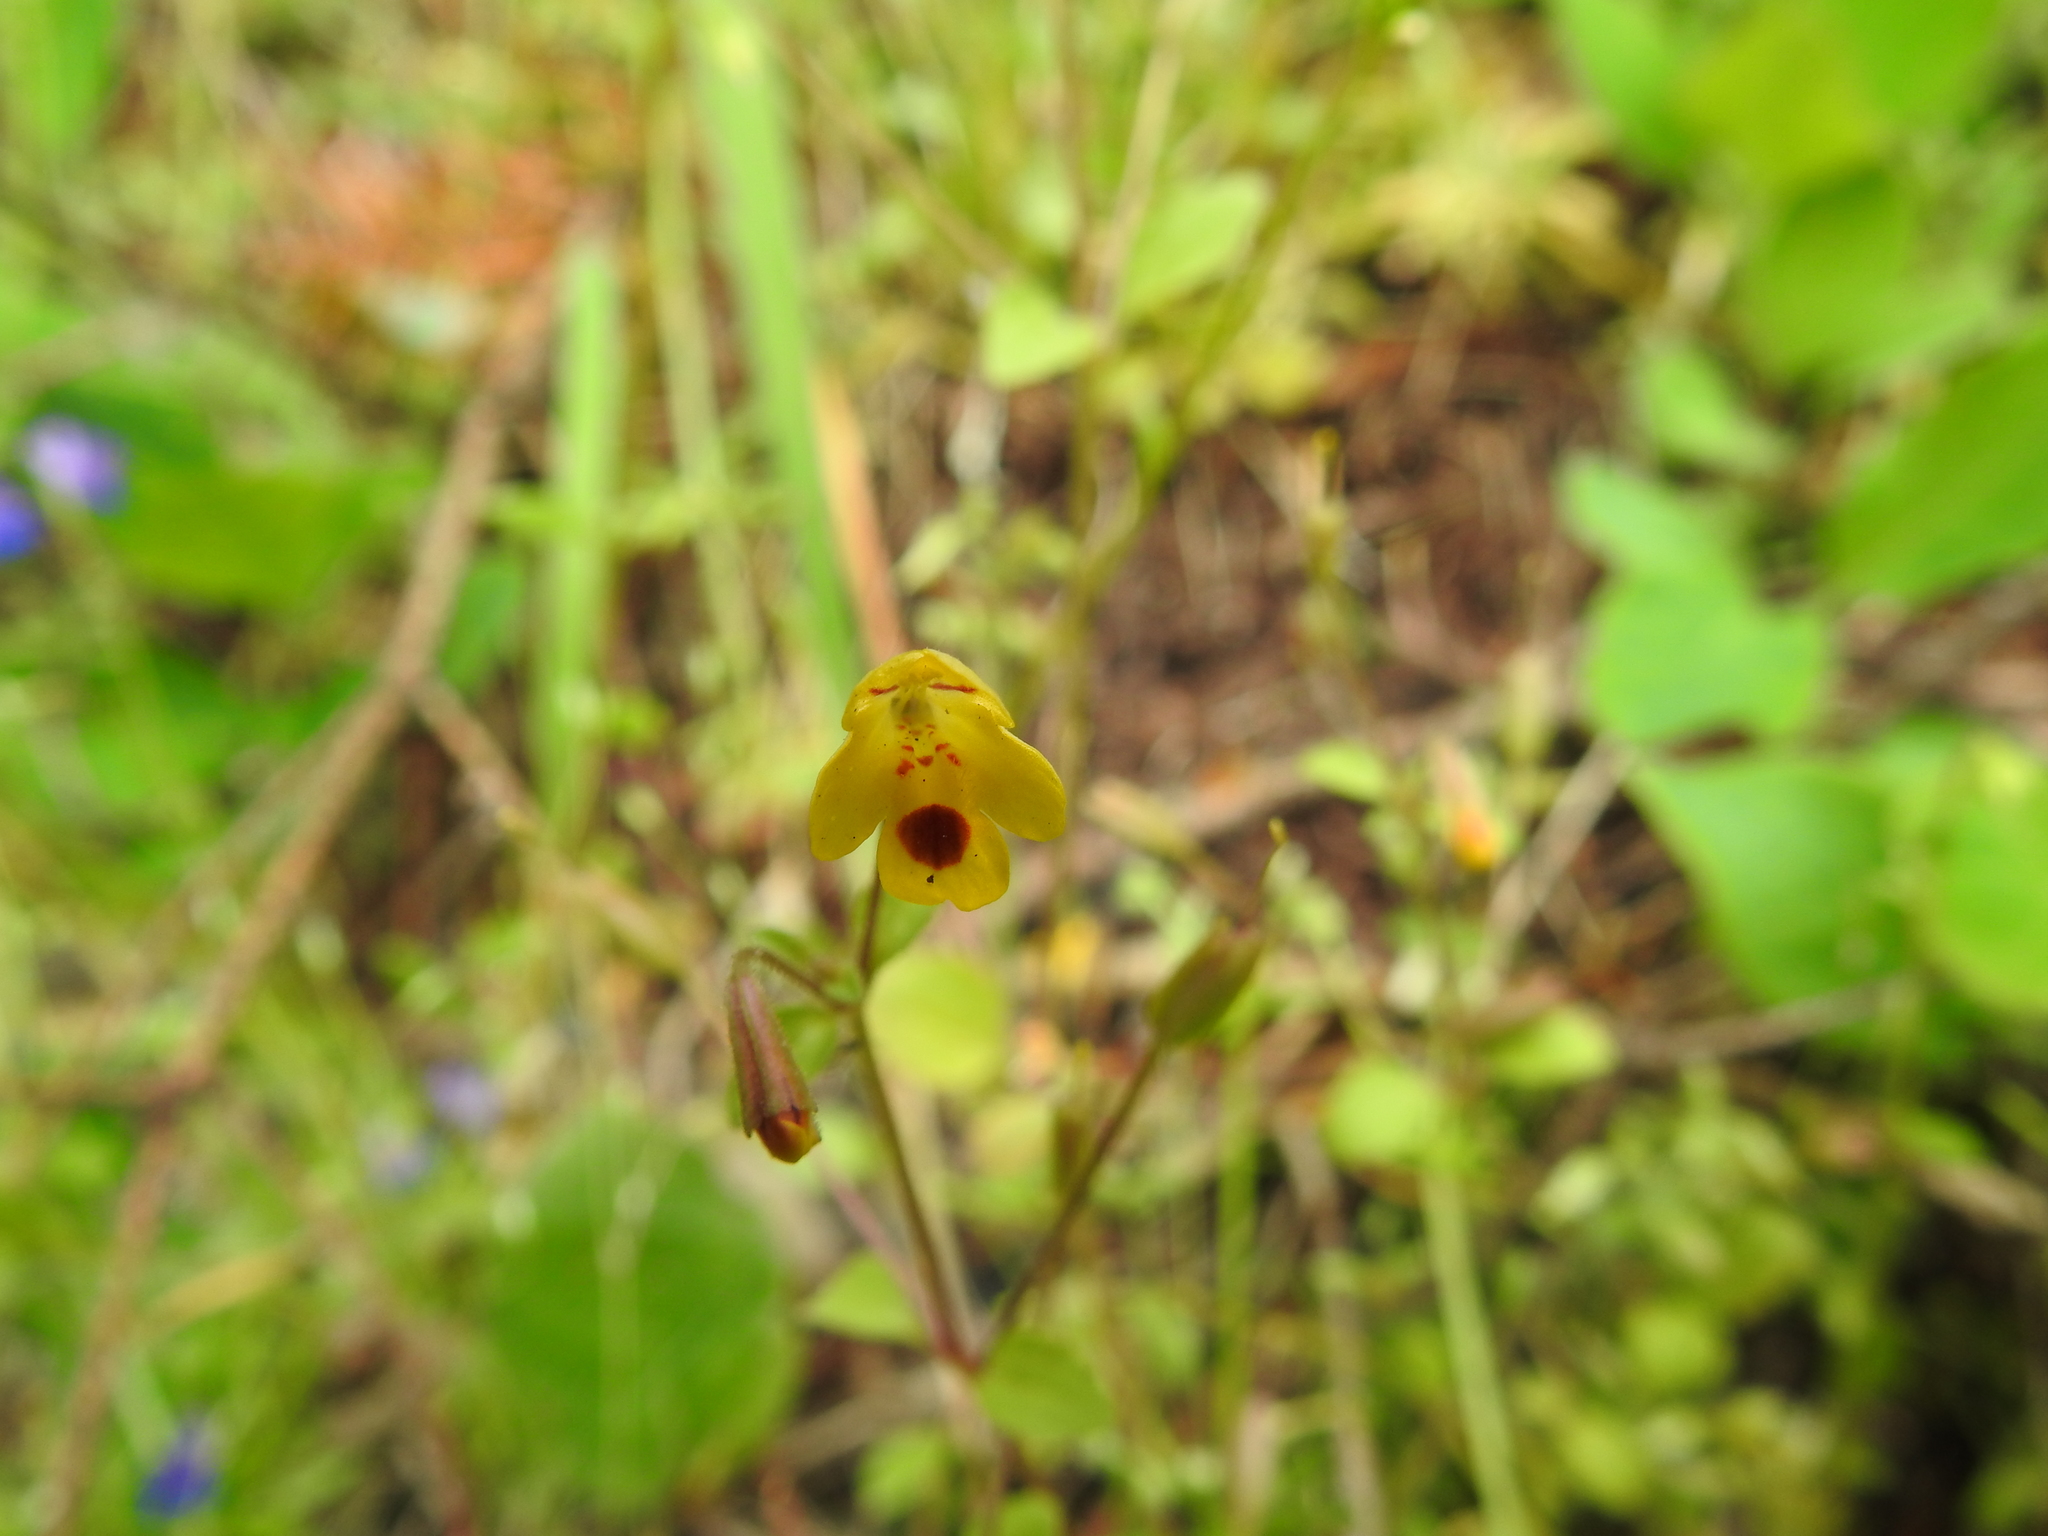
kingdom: Plantae
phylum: Tracheophyta
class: Magnoliopsida
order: Lamiales
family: Phrymaceae
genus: Erythranthe
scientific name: Erythranthe alsinoides
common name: Chickweed monkeyflower
